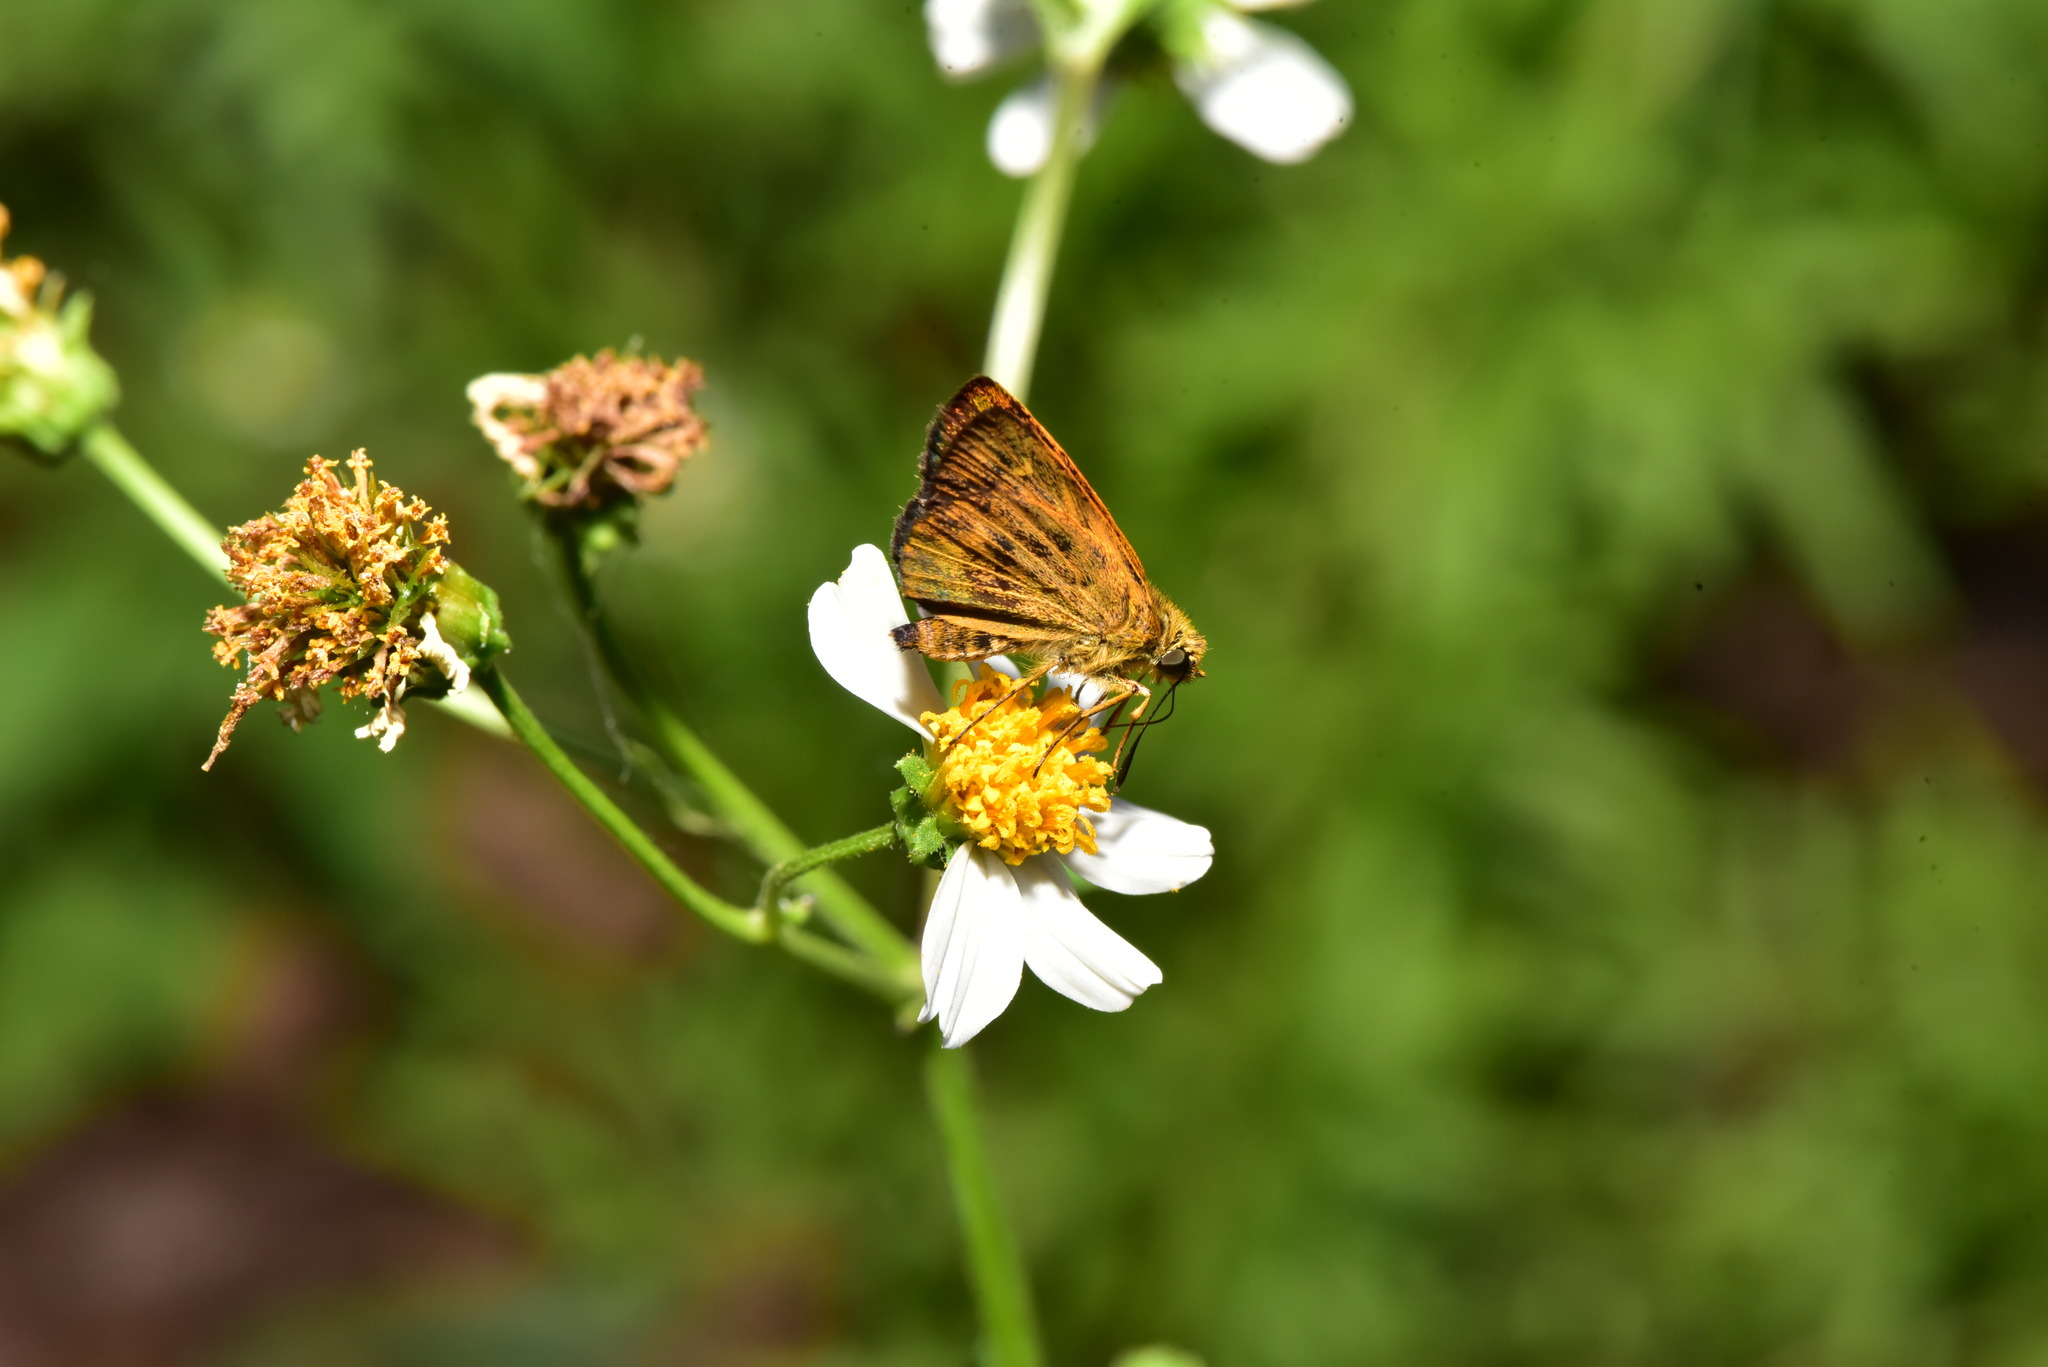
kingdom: Animalia
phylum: Arthropoda
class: Insecta
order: Lepidoptera
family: Hesperiidae
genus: Ampittia
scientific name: Ampittia virgata
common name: Striped bush hopper
